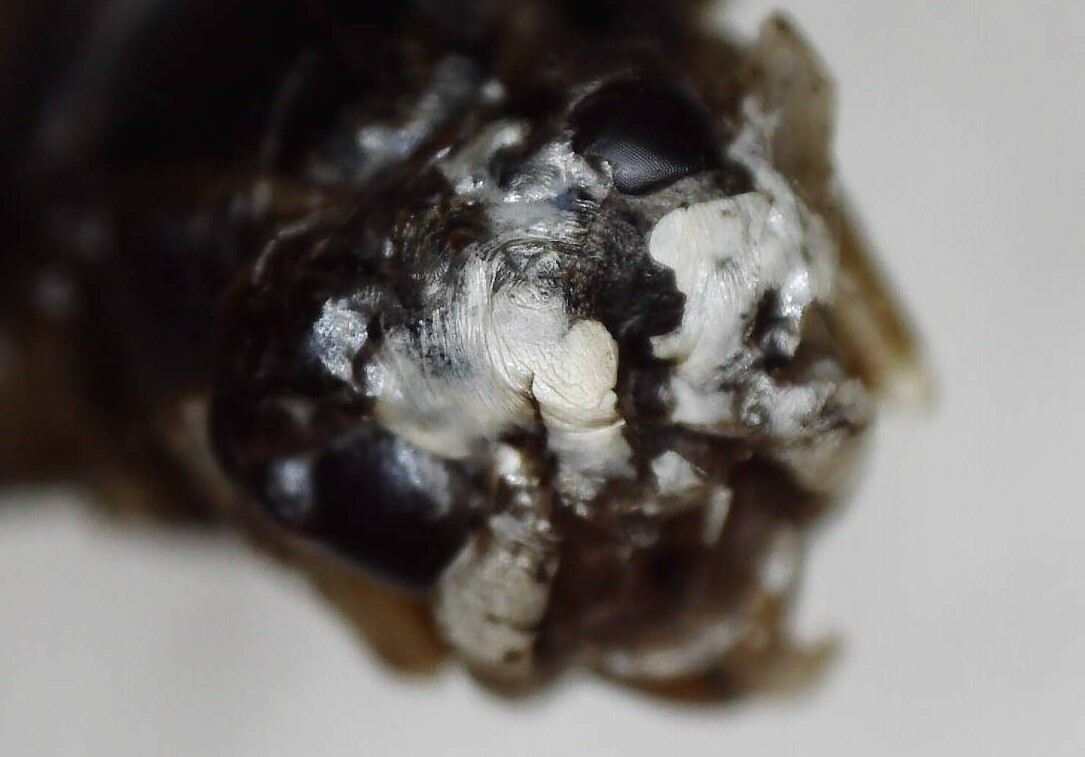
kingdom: Animalia
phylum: Arthropoda
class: Insecta
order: Hymenoptera
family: Vespidae
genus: Dolichovespula
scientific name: Dolichovespula maculata
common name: Bald-faced hornet
